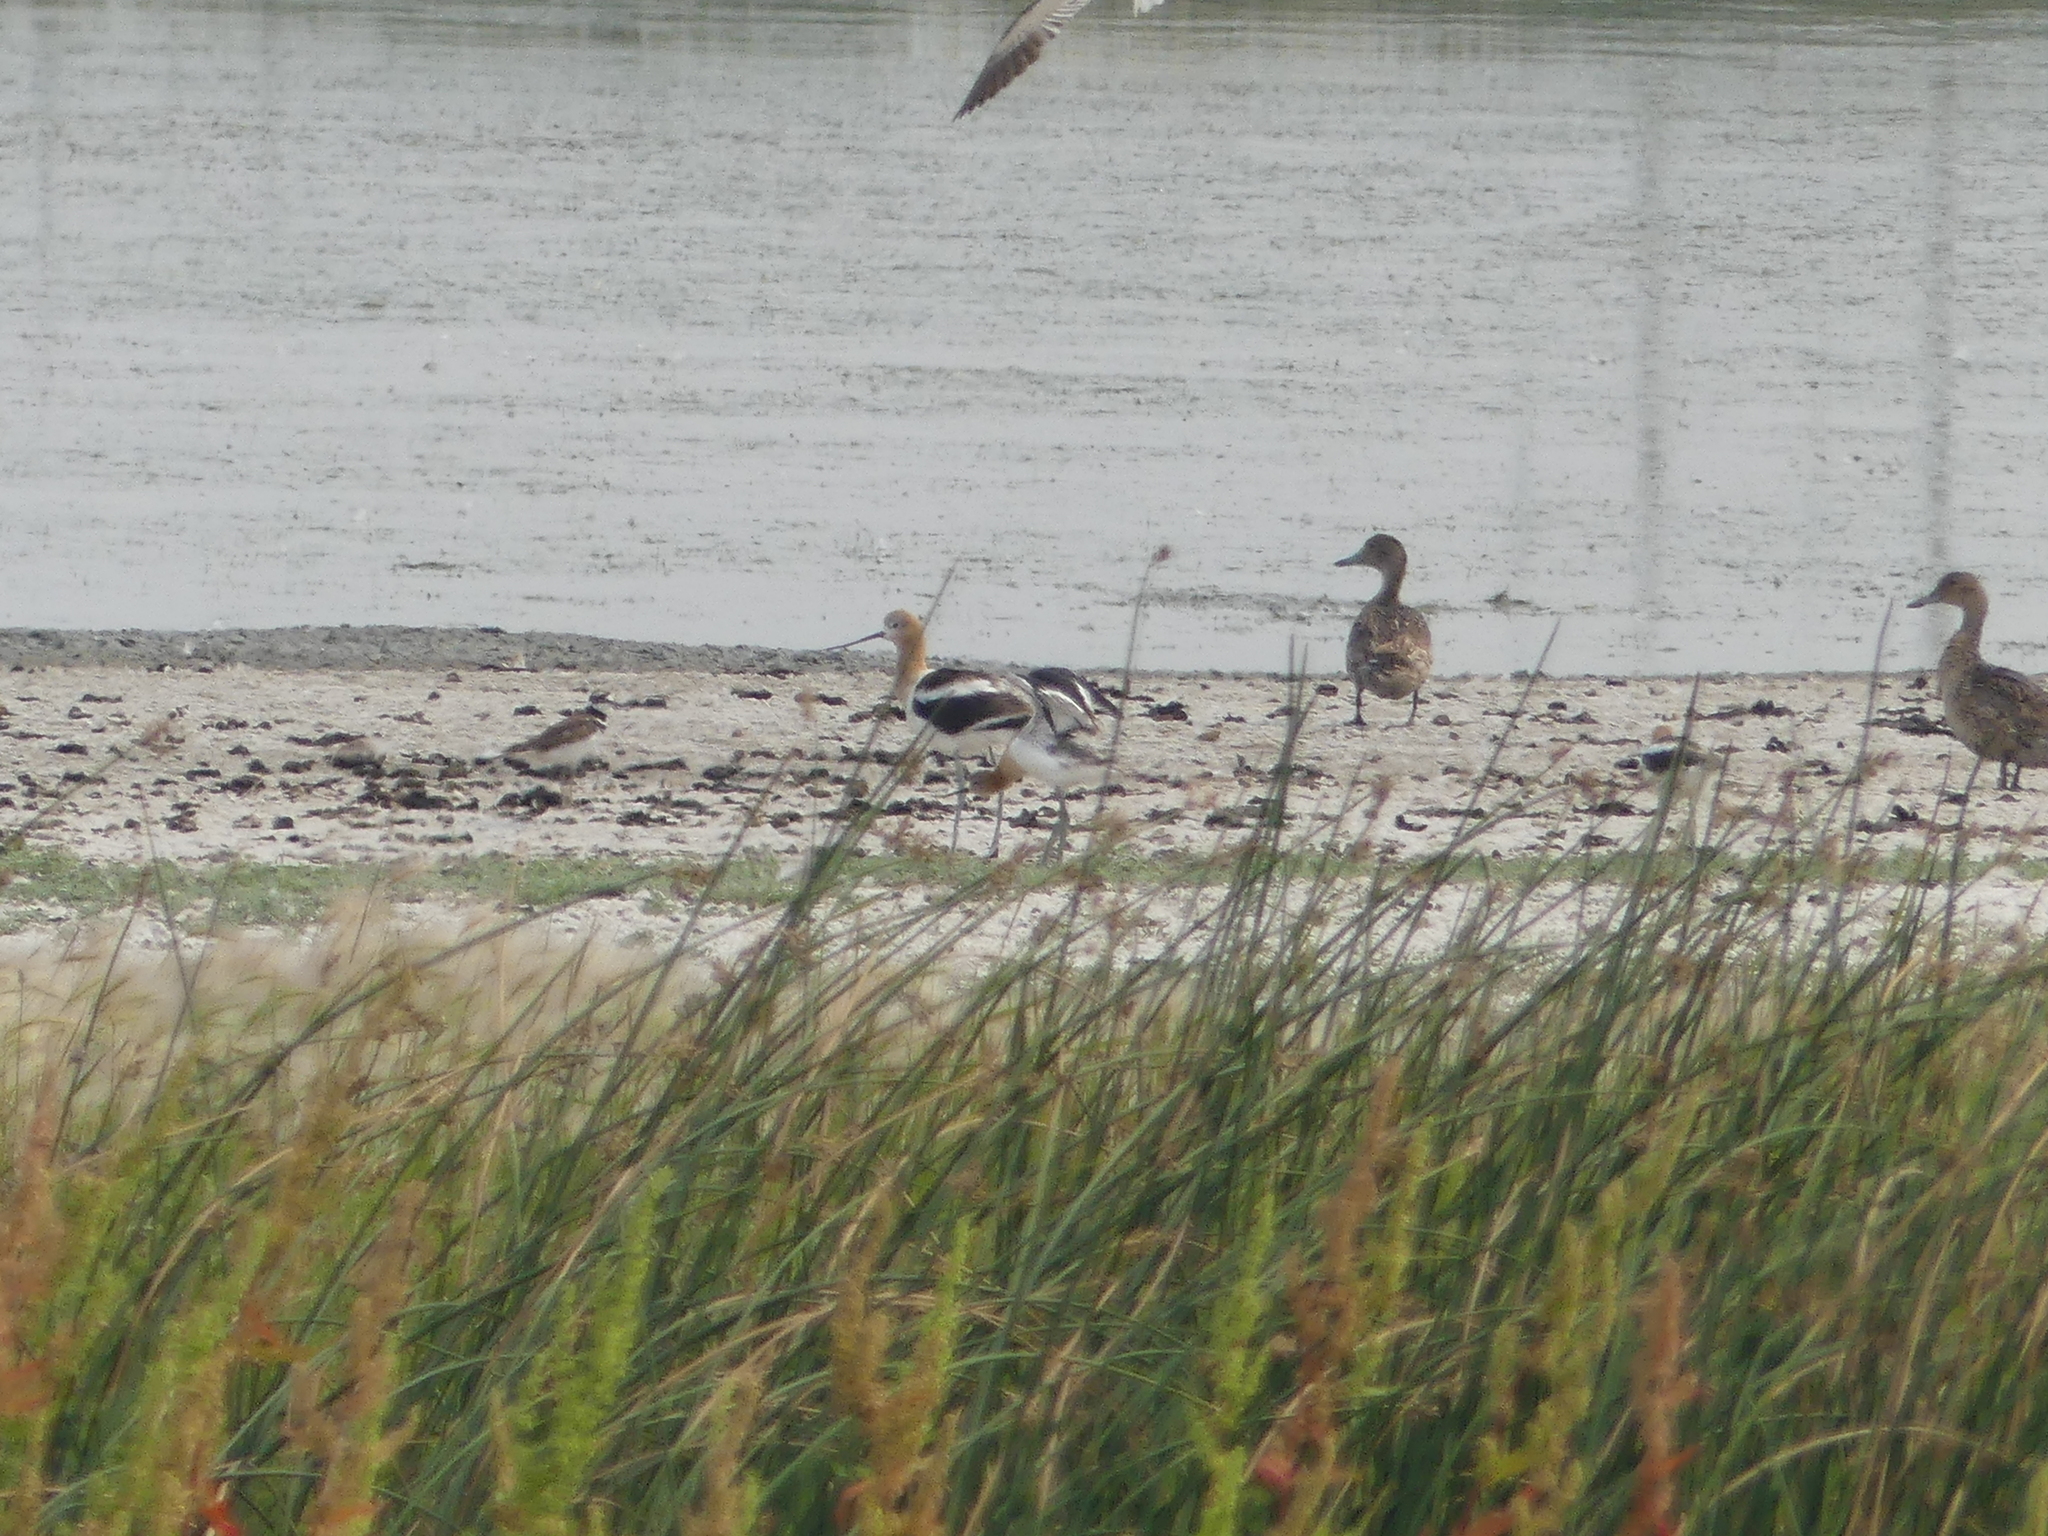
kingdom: Animalia
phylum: Chordata
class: Aves
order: Charadriiformes
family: Recurvirostridae
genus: Recurvirostra
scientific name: Recurvirostra americana
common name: American avocet
